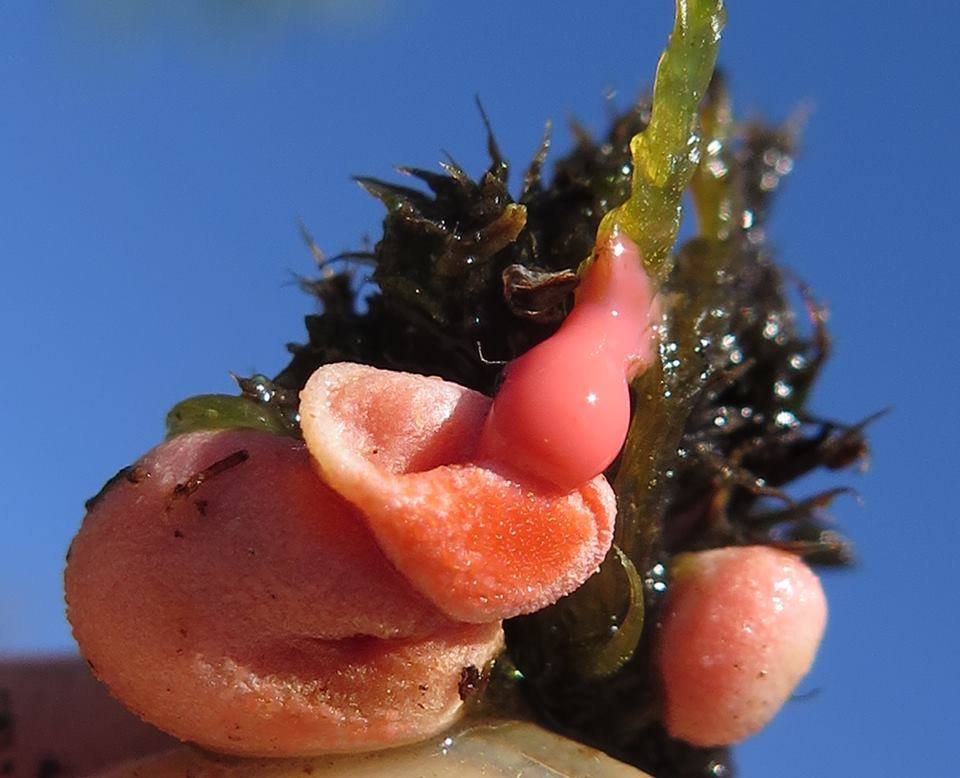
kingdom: Protozoa
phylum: Mycetozoa
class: Myxomycetes
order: Cribrariales
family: Tubiferaceae
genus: Lycogala
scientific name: Lycogala epidendrum
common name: Wolf's milk
